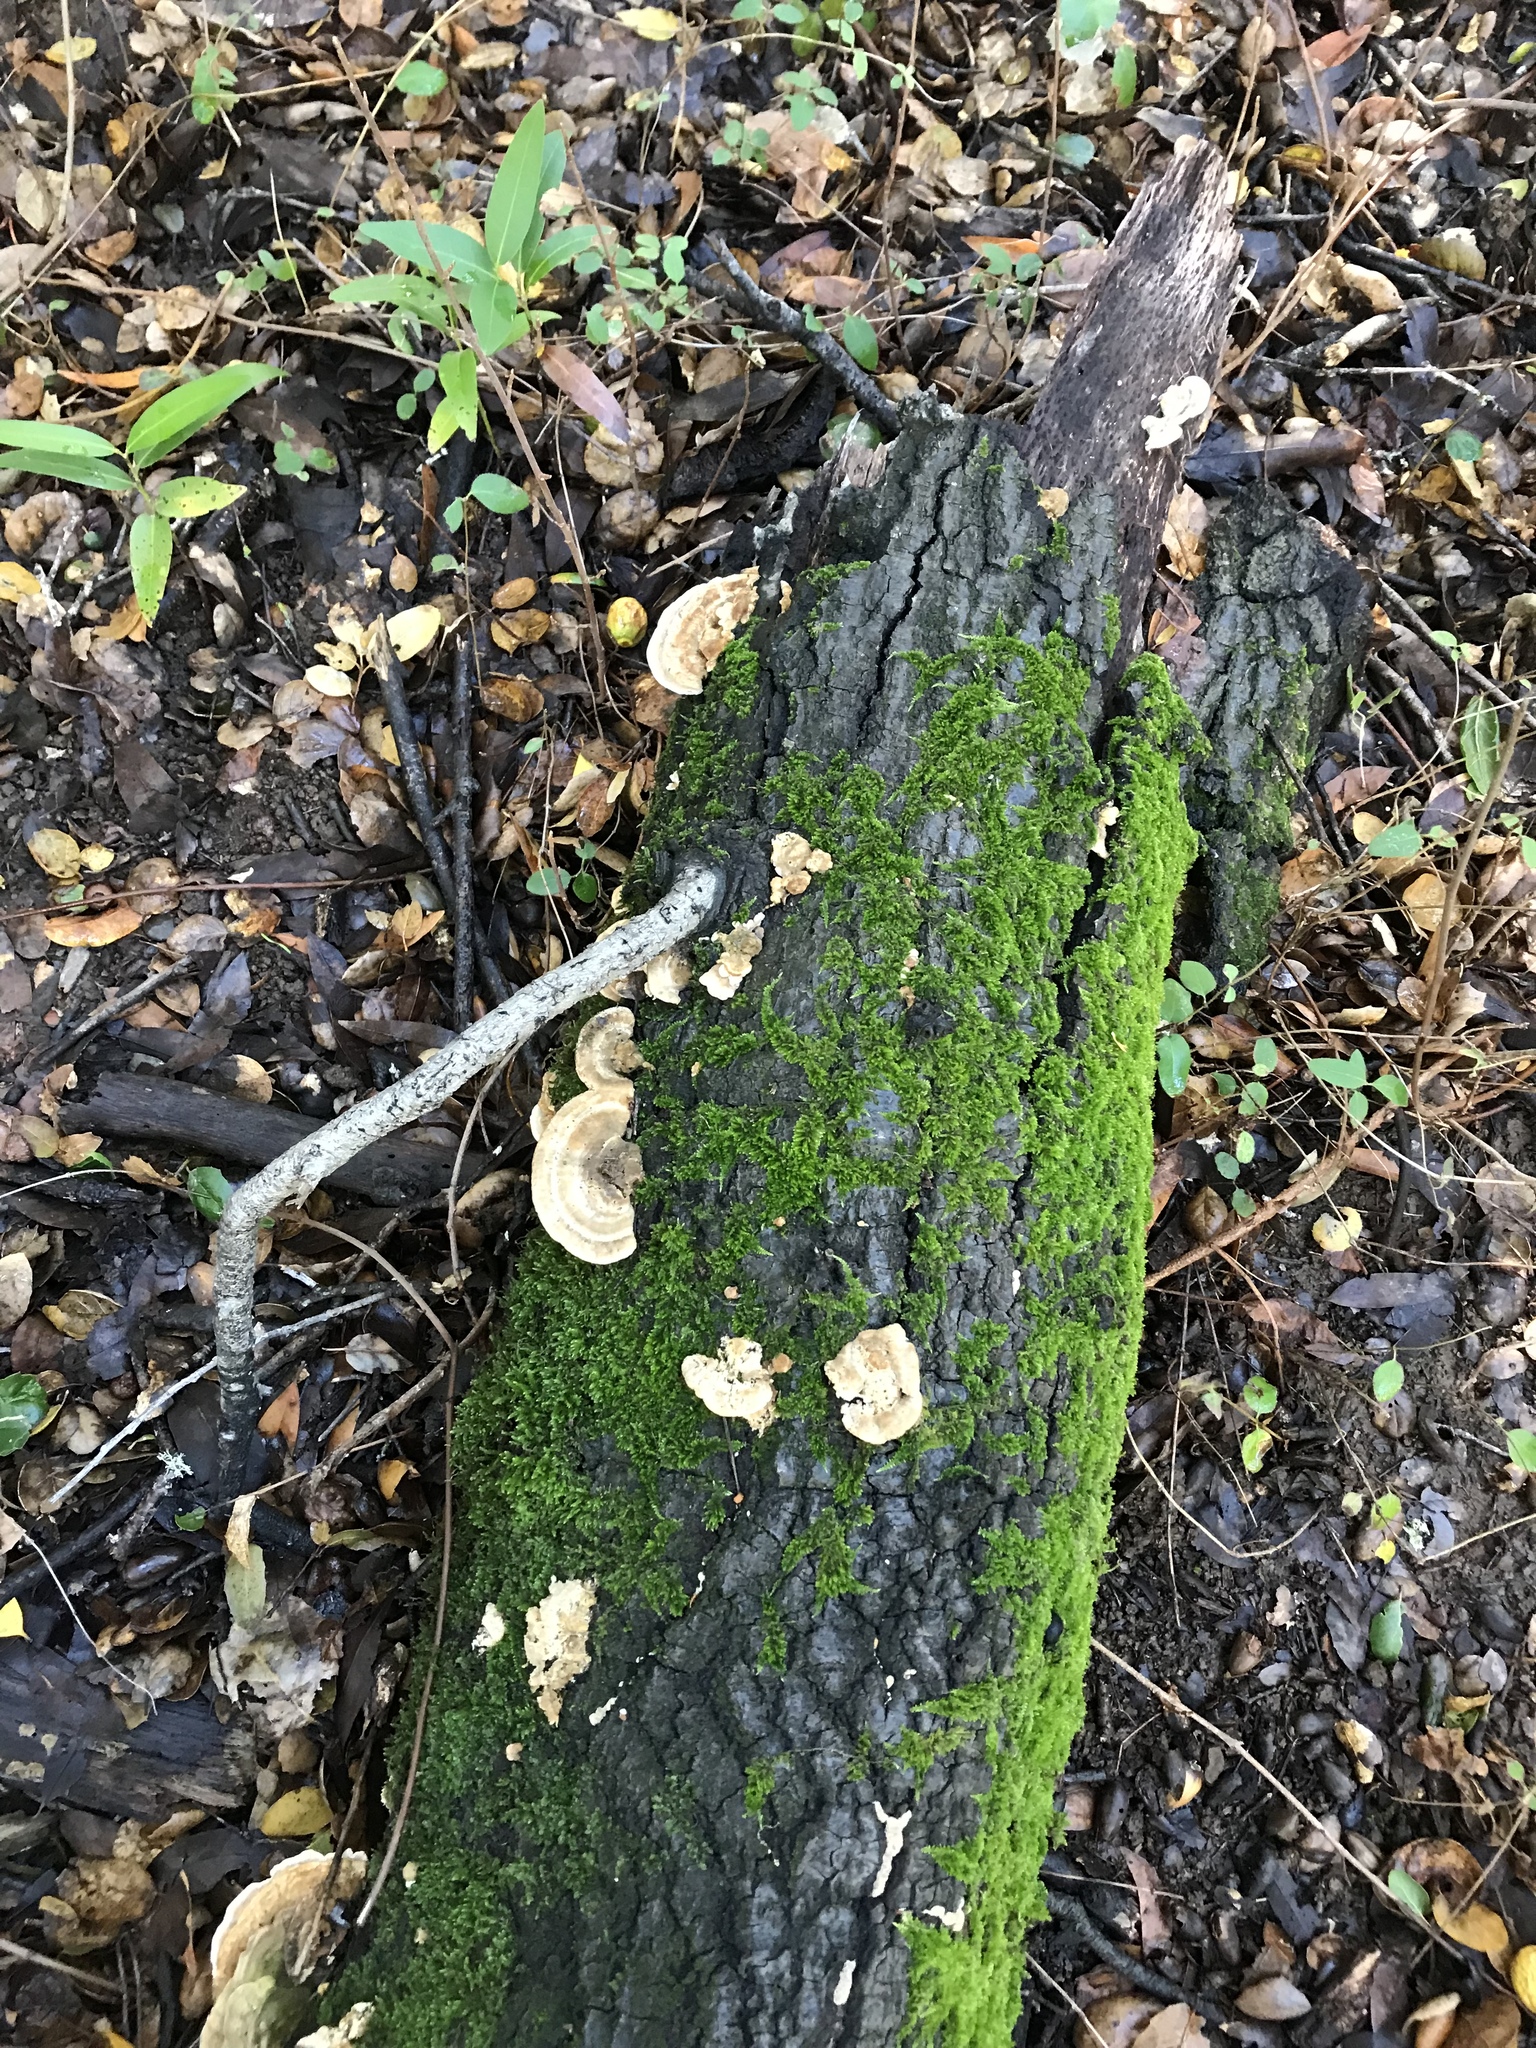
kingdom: Fungi
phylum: Basidiomycota
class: Agaricomycetes
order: Polyporales
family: Polyporaceae
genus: Lenzites
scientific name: Lenzites betulinus
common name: Birch mazegill
